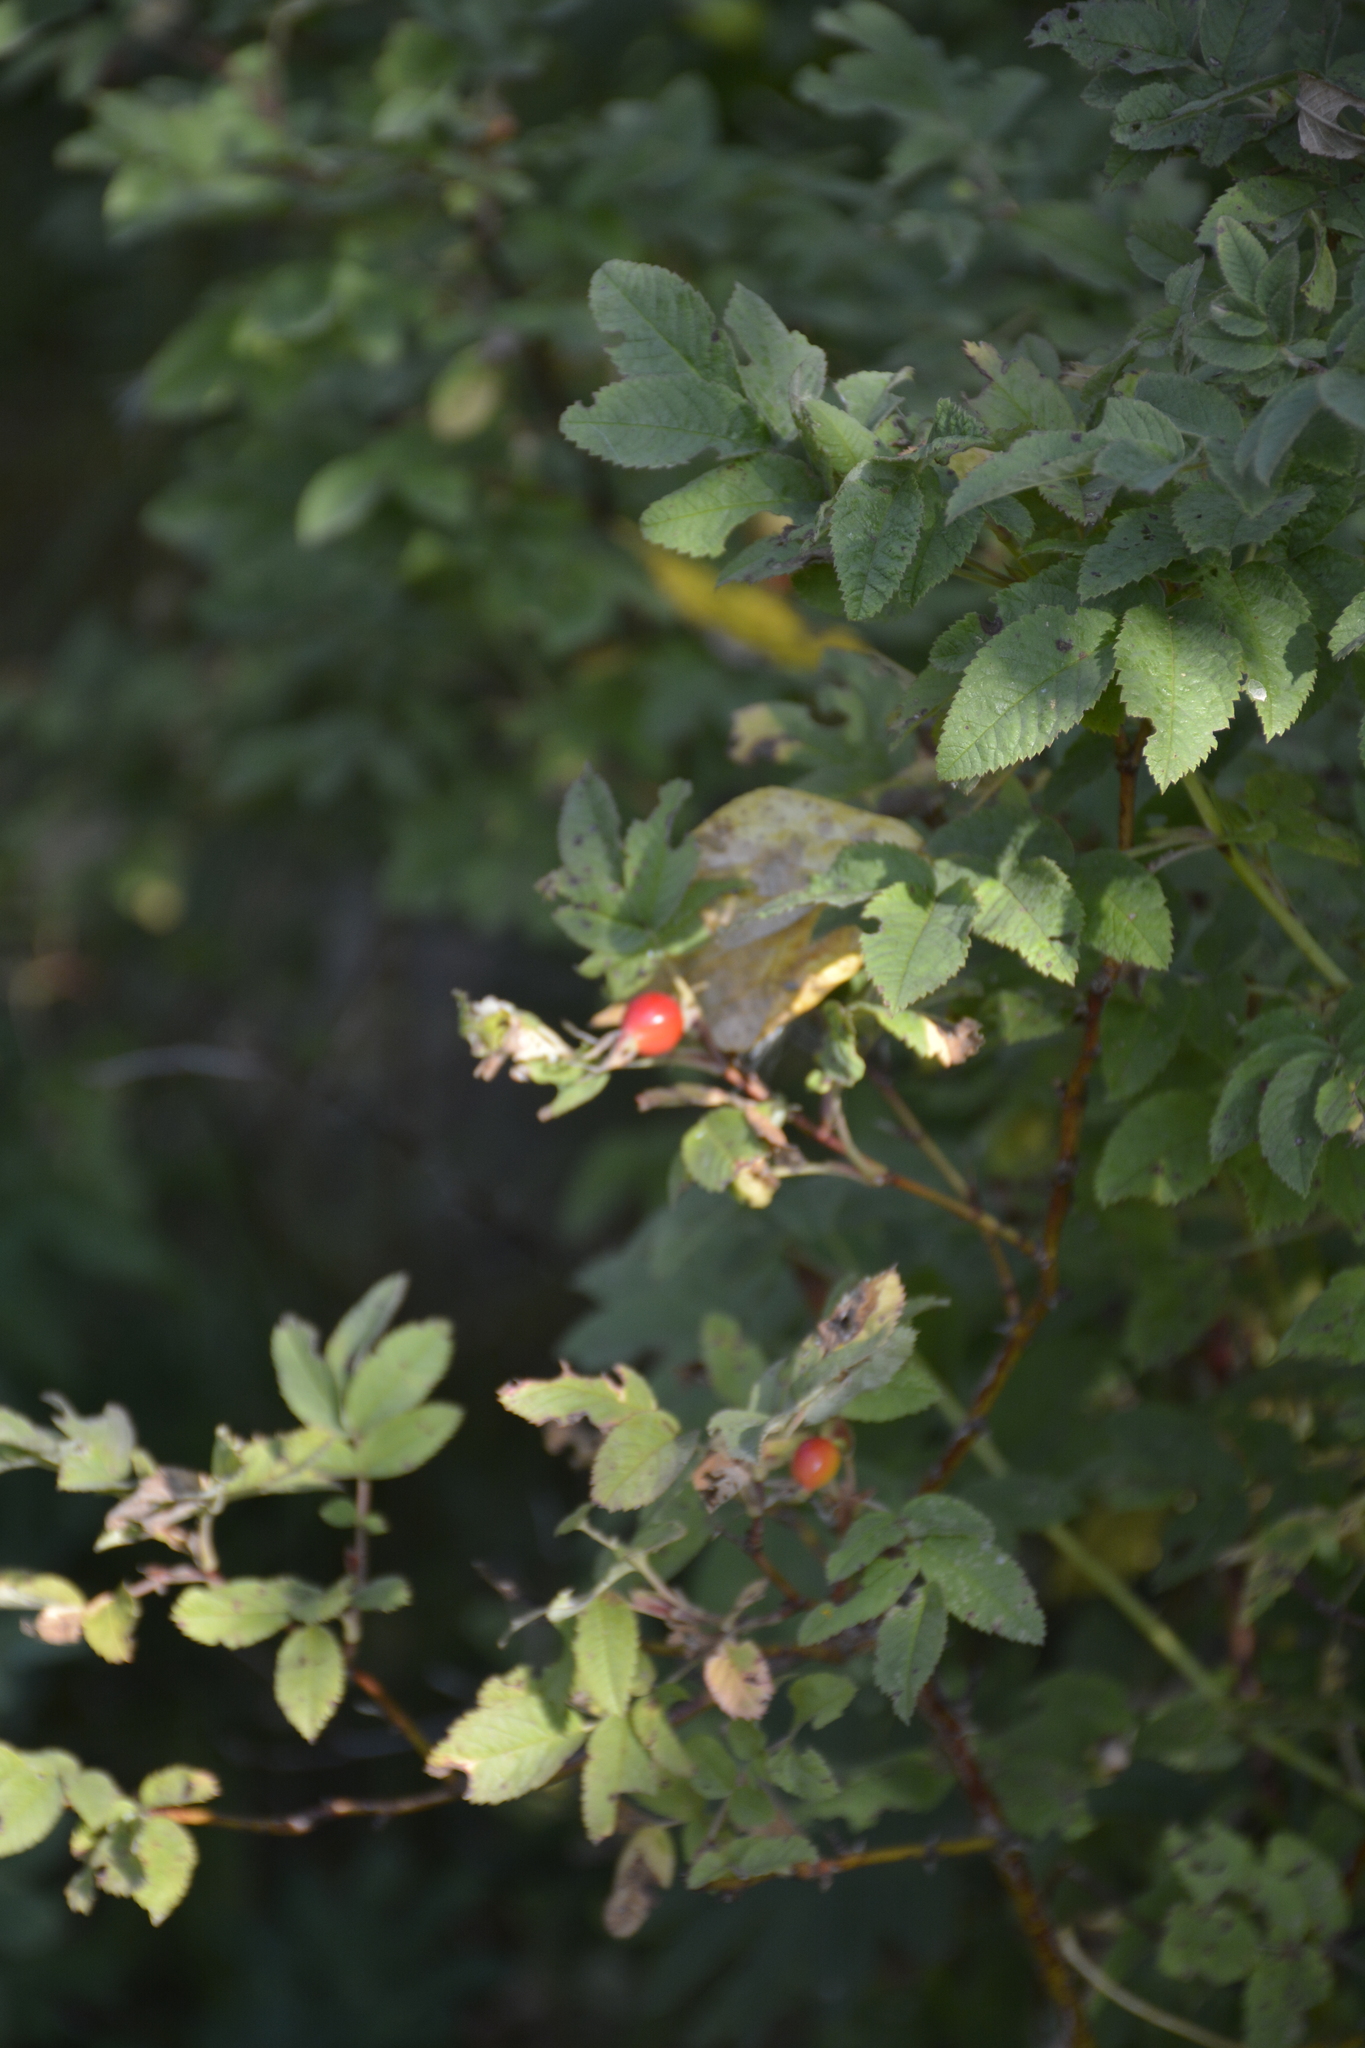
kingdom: Plantae
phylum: Tracheophyta
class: Magnoliopsida
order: Rosales
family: Rosaceae
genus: Rosa
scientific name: Rosa majalis
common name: Cinnamon rose
